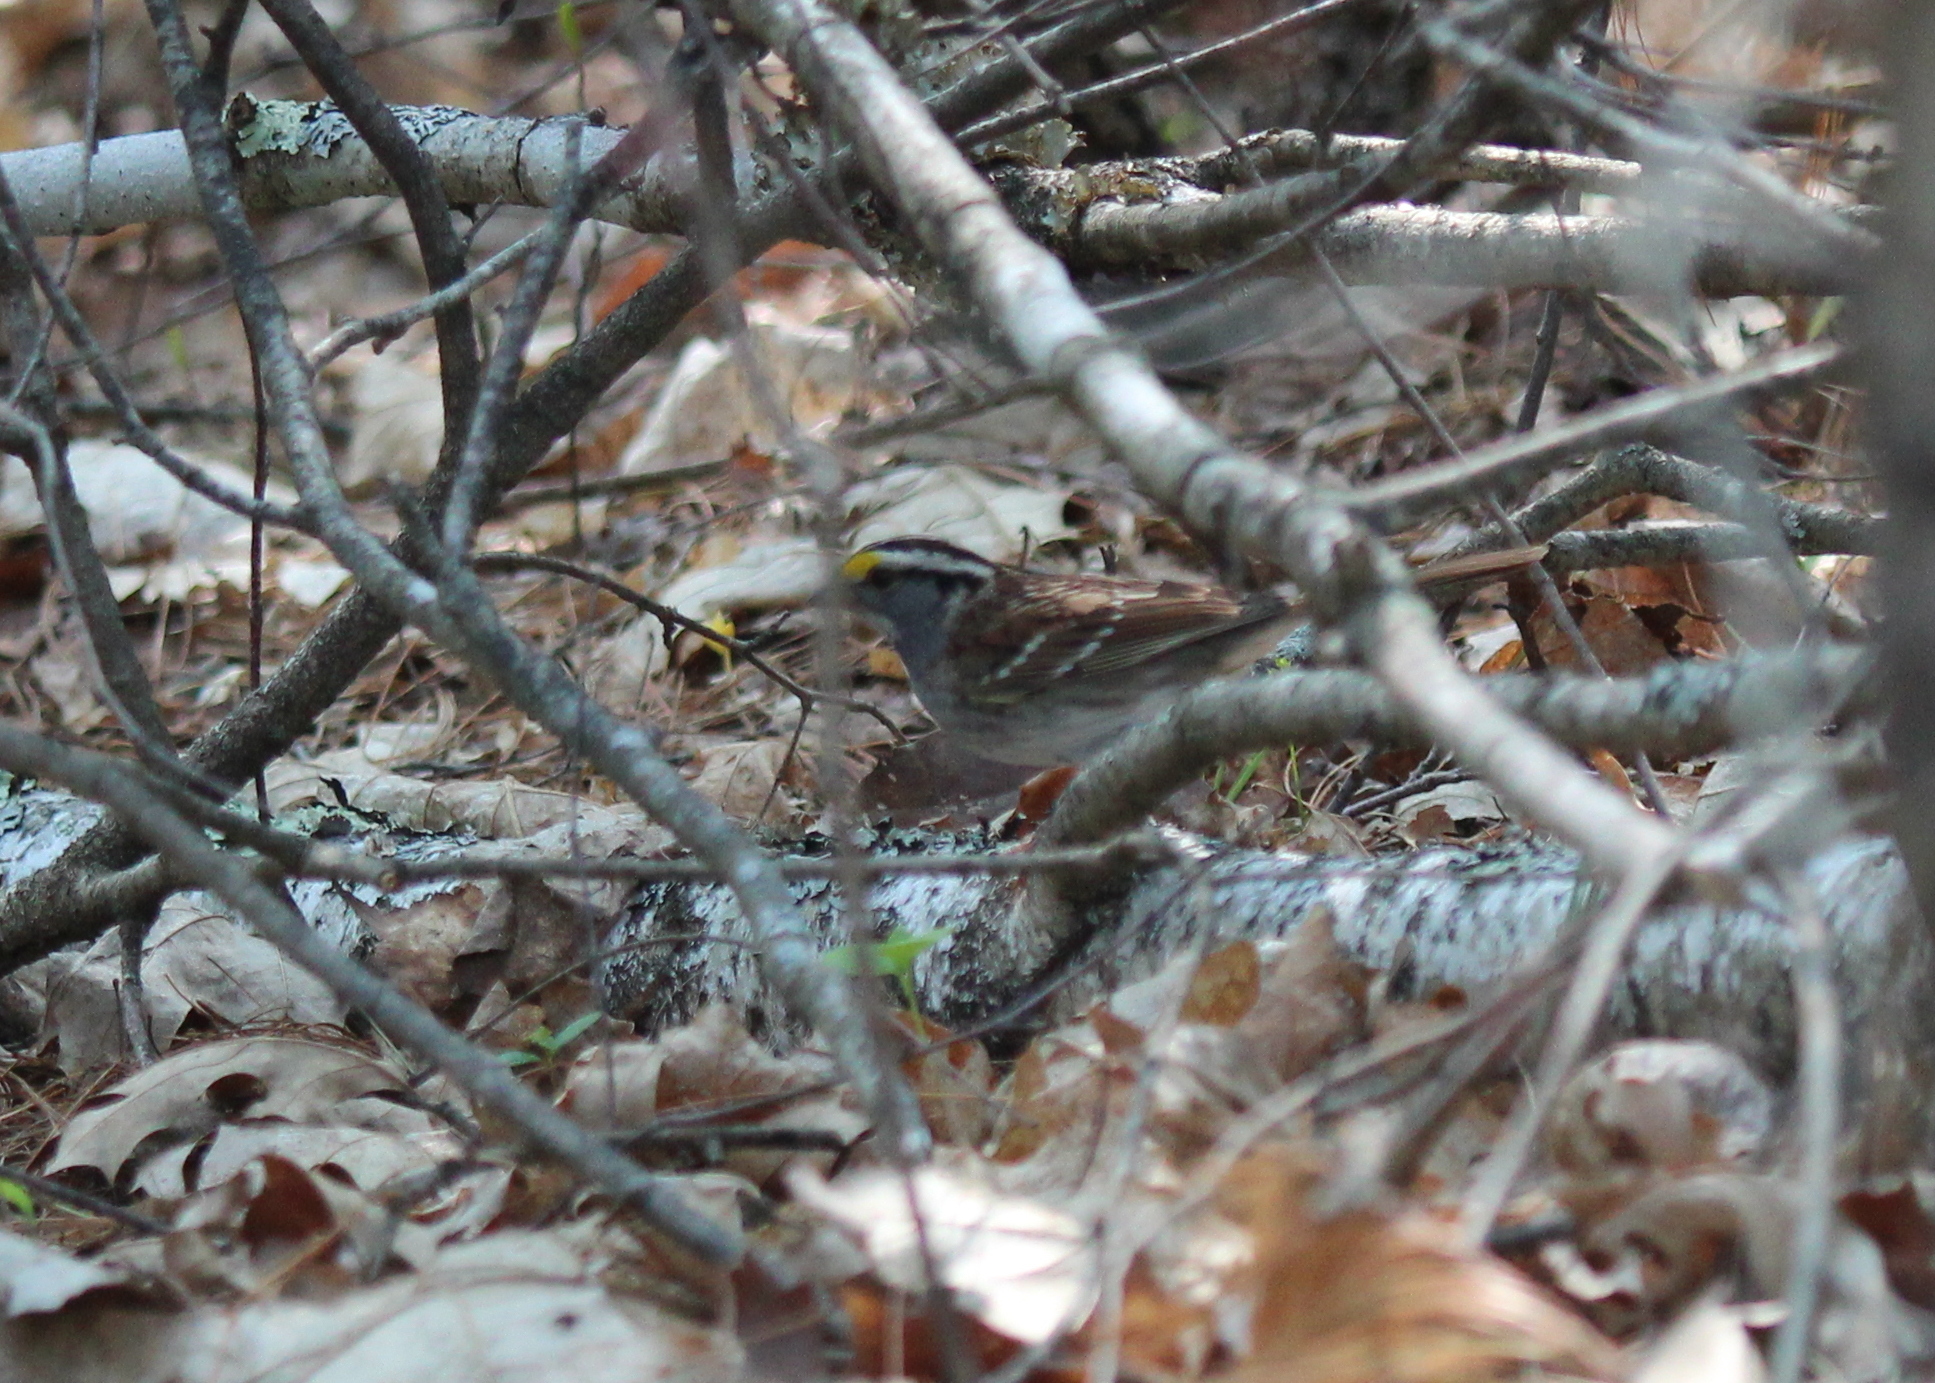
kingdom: Animalia
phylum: Chordata
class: Aves
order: Passeriformes
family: Passerellidae
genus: Zonotrichia
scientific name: Zonotrichia albicollis
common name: White-throated sparrow
